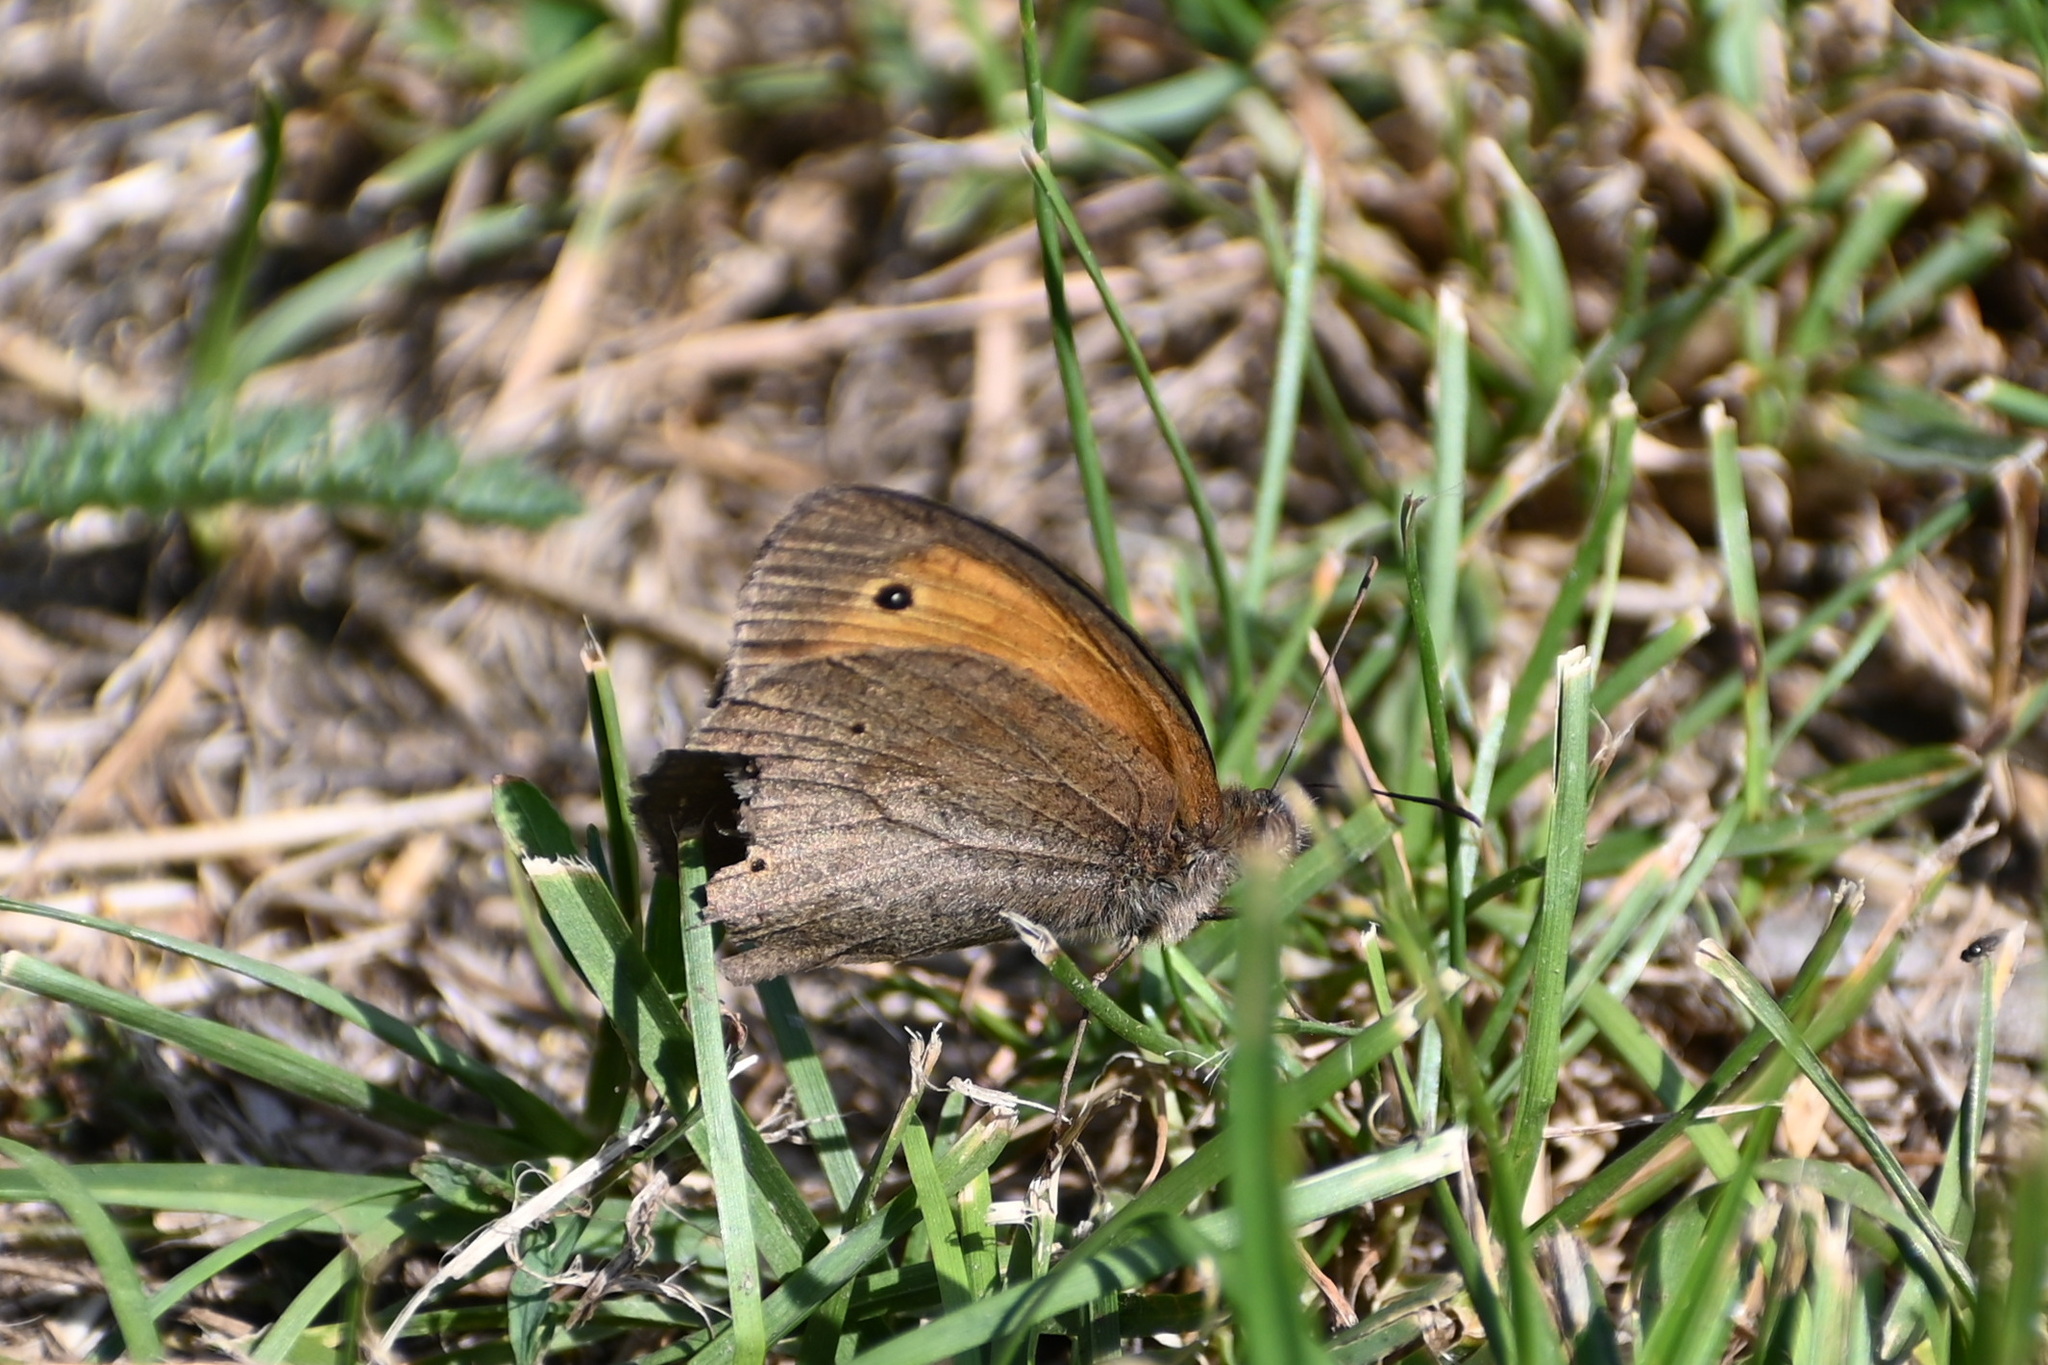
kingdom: Animalia
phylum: Arthropoda
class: Insecta
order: Lepidoptera
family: Nymphalidae
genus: Maniola
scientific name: Maniola jurtina
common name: Meadow brown
